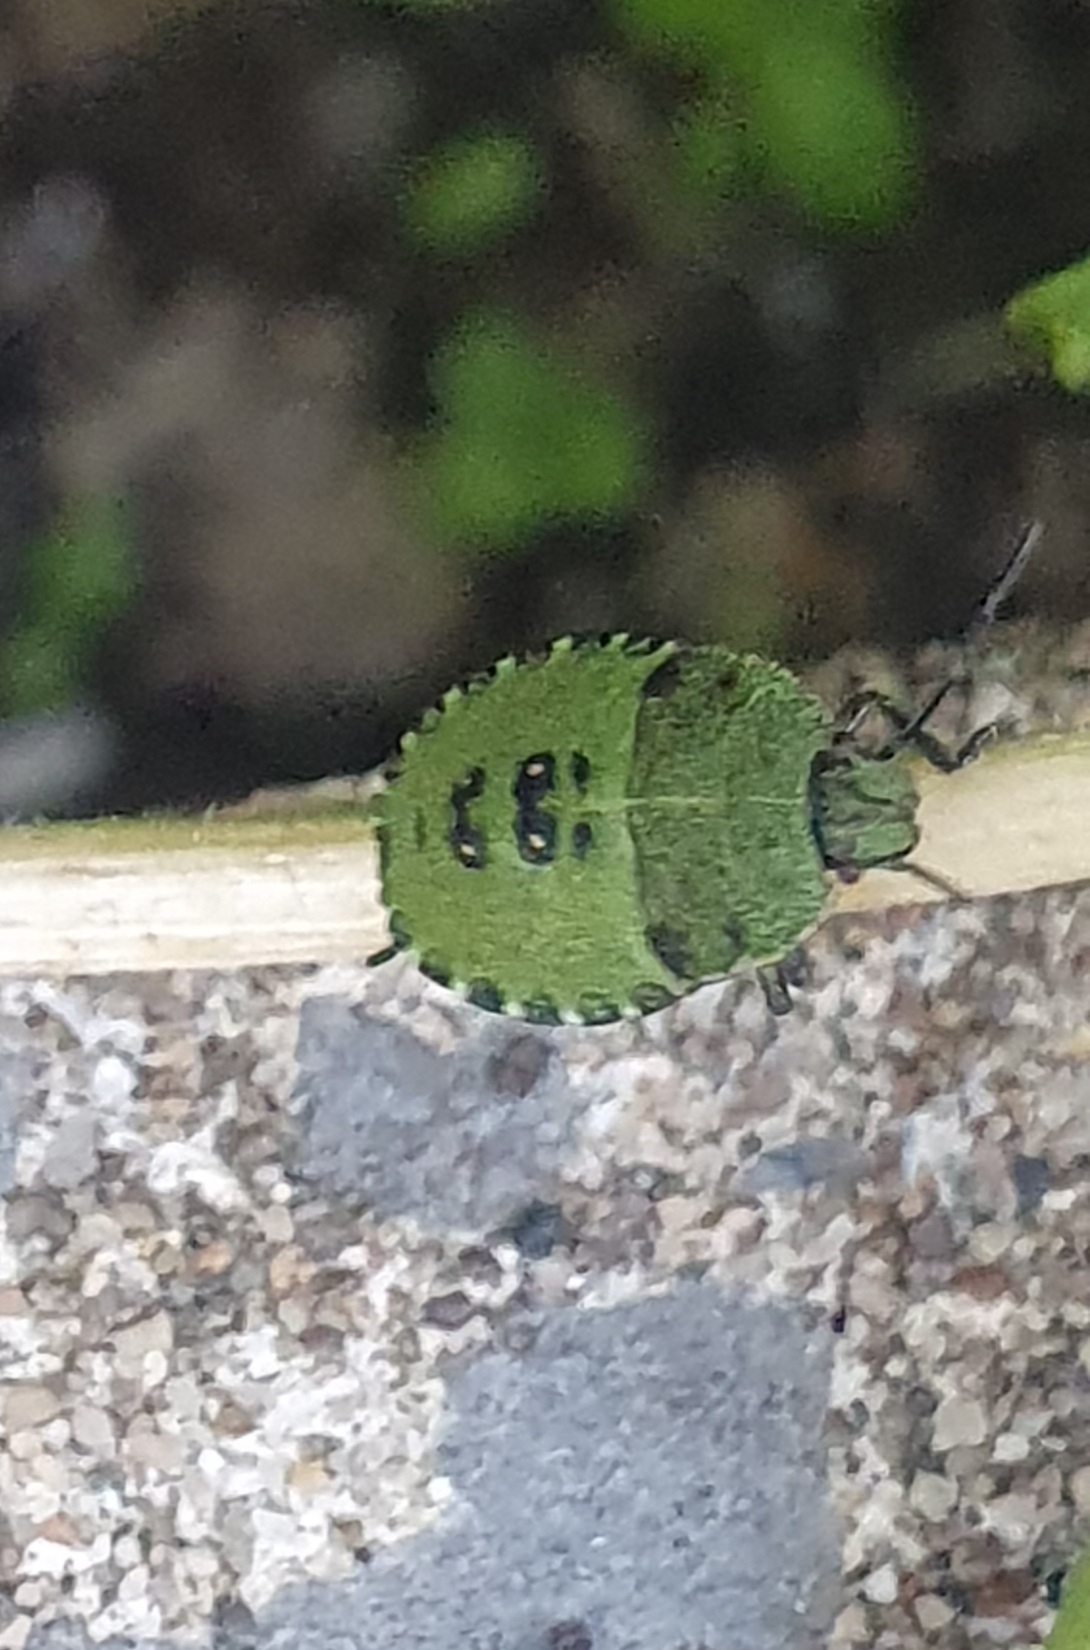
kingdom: Animalia
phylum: Arthropoda
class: Insecta
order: Hemiptera
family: Pentatomidae
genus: Palomena
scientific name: Palomena prasina
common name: Green shieldbug
